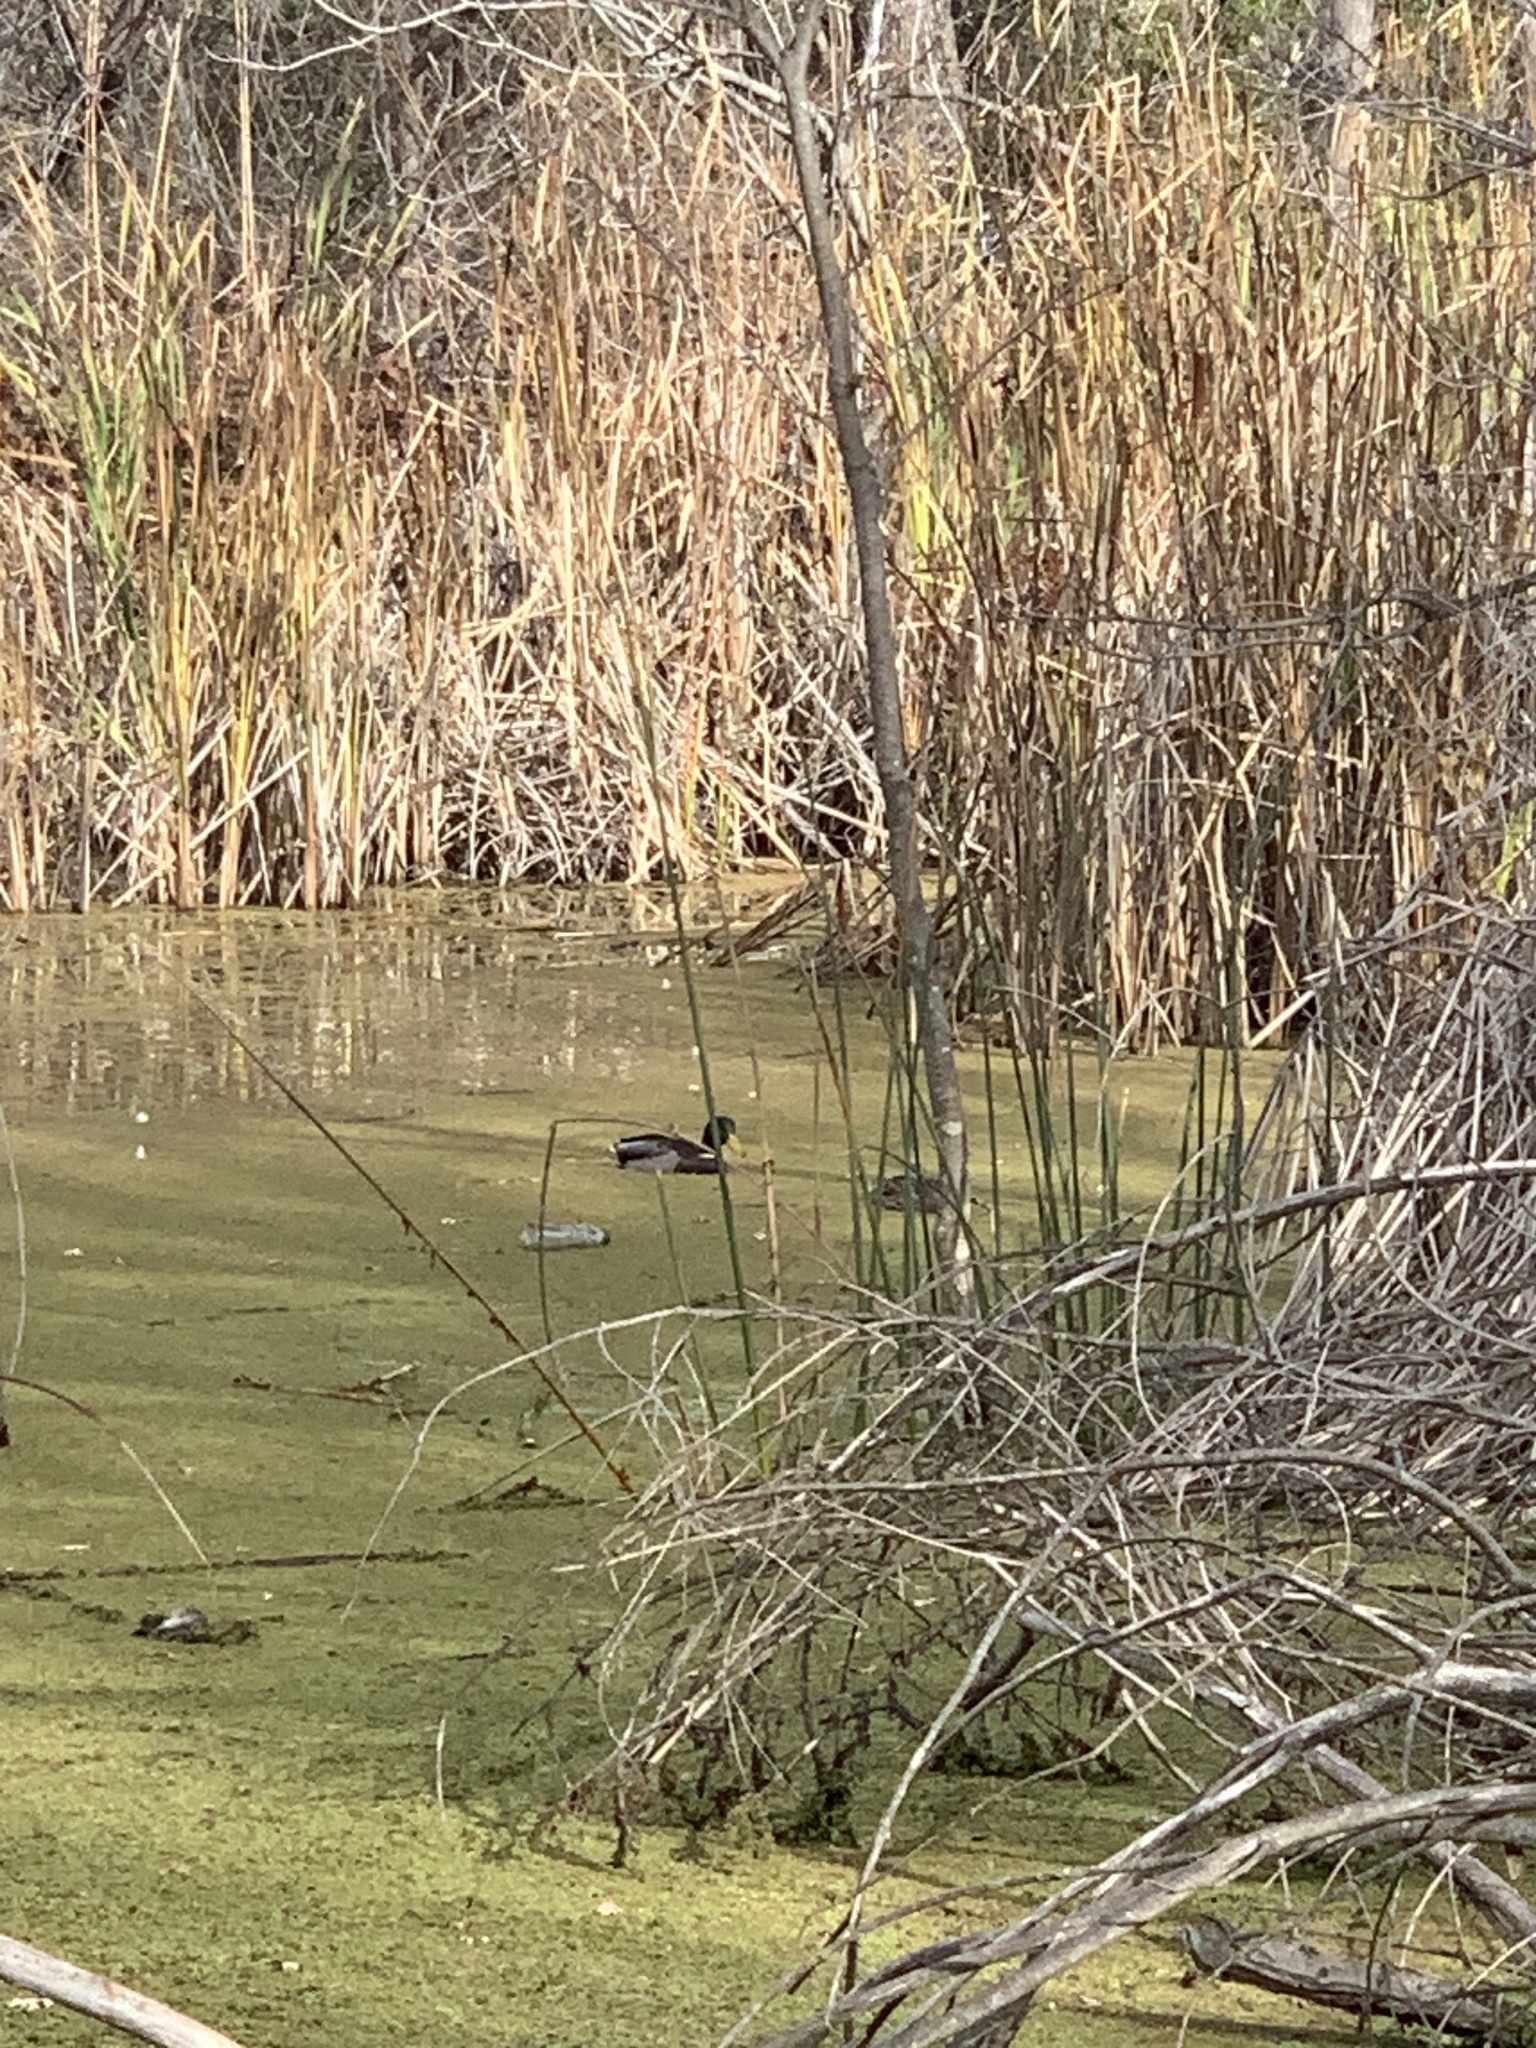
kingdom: Animalia
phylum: Chordata
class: Aves
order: Anseriformes
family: Anatidae
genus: Anas
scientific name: Anas platyrhynchos
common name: Mallard
